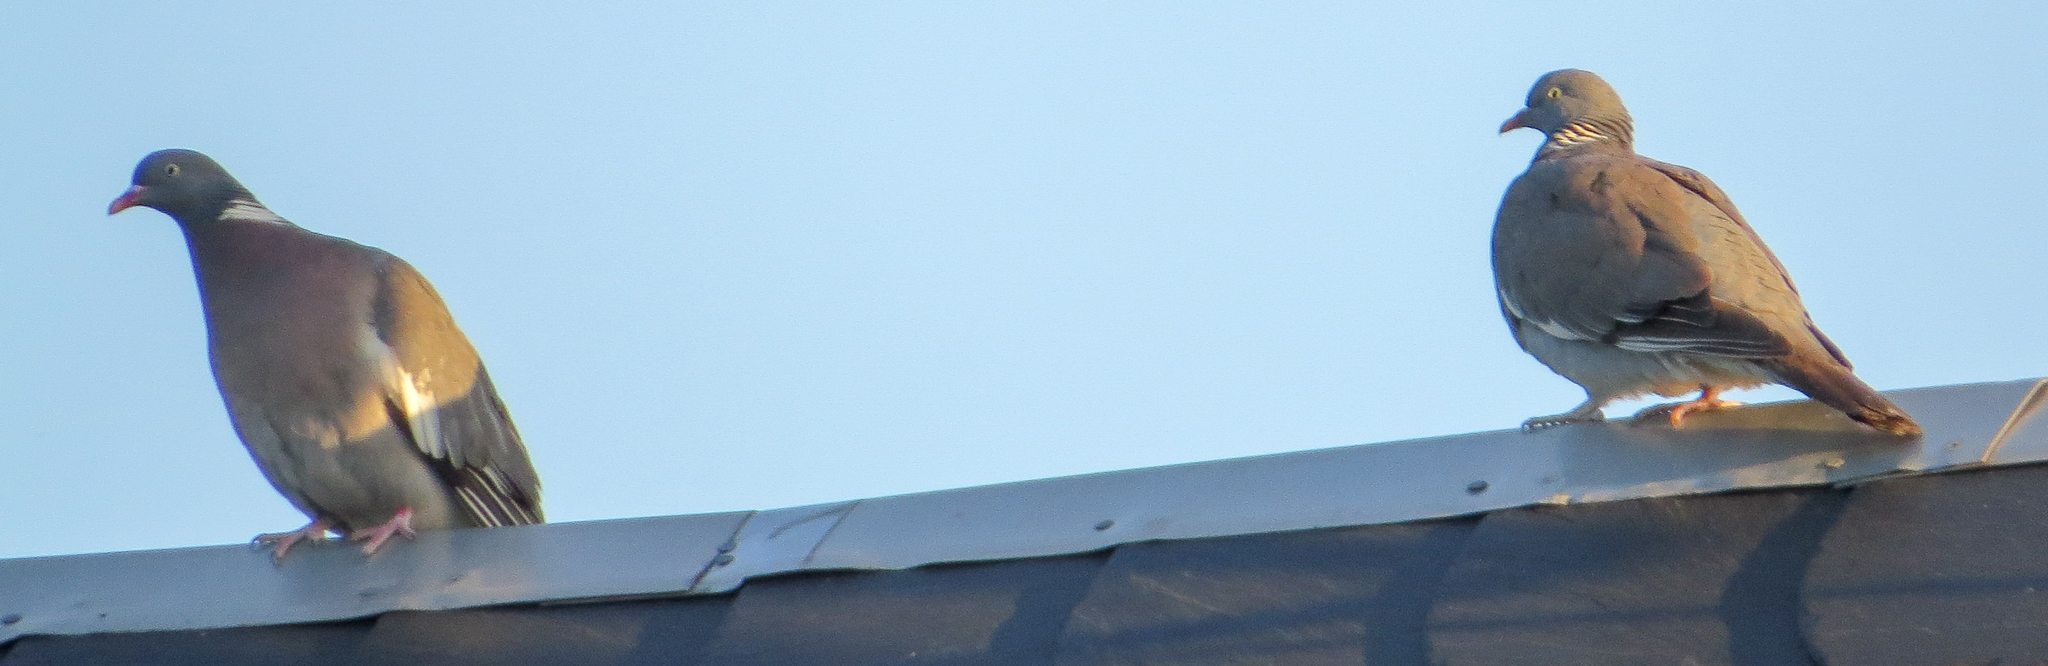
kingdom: Animalia
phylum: Chordata
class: Aves
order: Columbiformes
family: Columbidae
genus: Columba
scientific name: Columba palumbus
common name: Common wood pigeon
